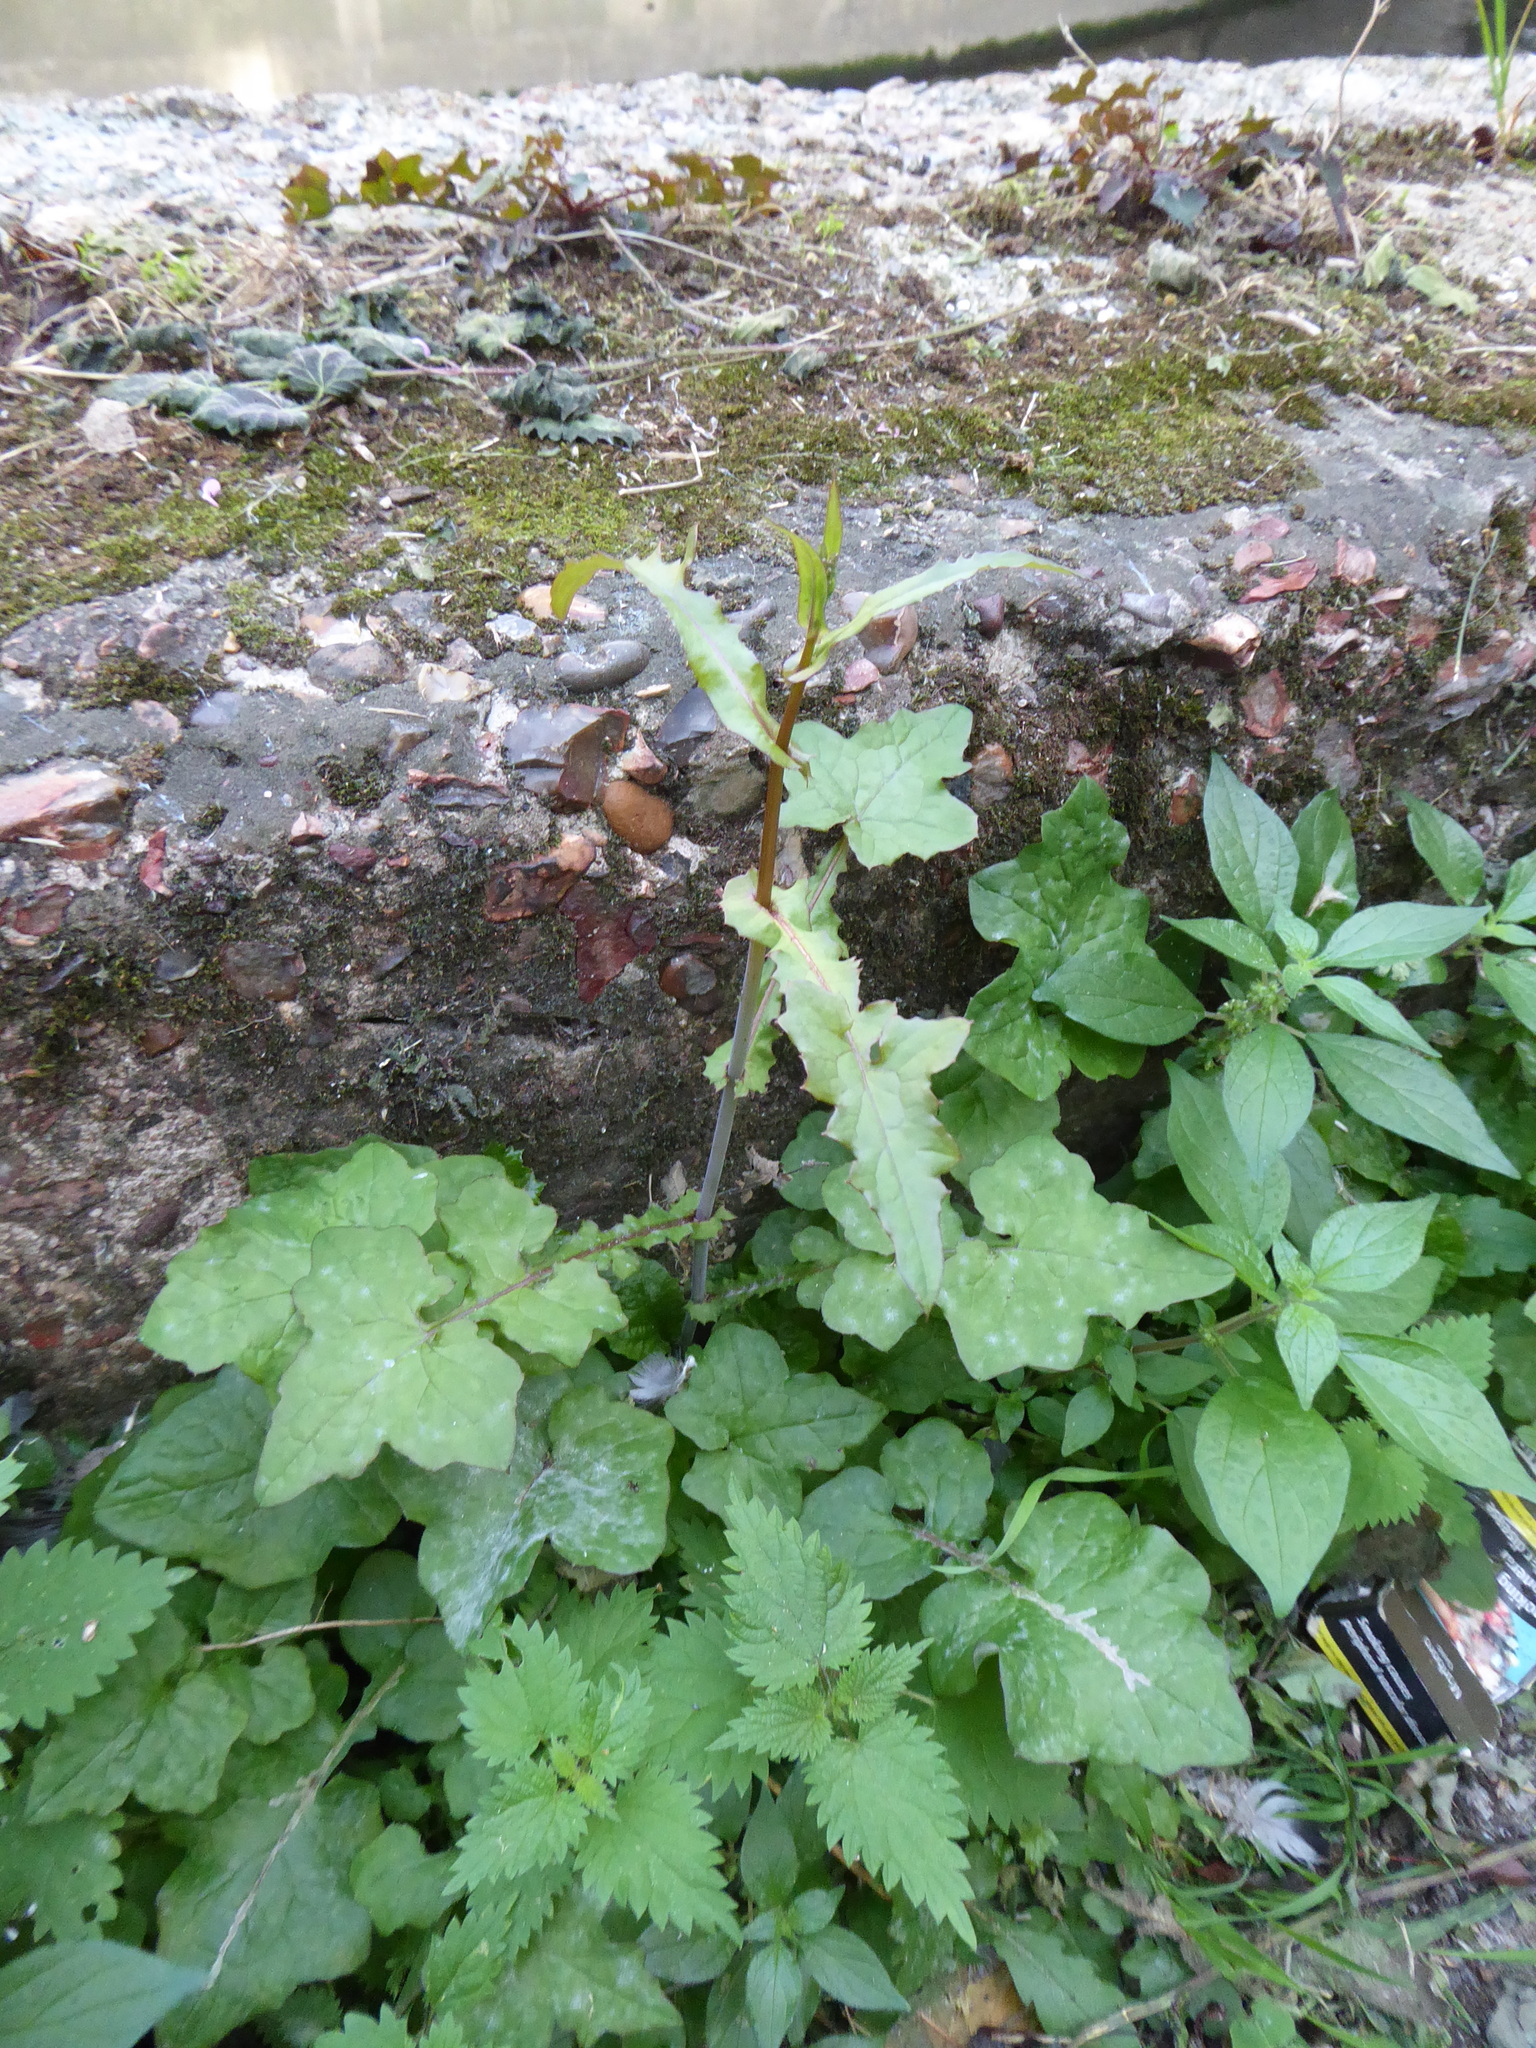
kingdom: Plantae
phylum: Tracheophyta
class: Magnoliopsida
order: Asterales
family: Asteraceae
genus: Mycelis
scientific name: Mycelis muralis
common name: Wall lettuce
